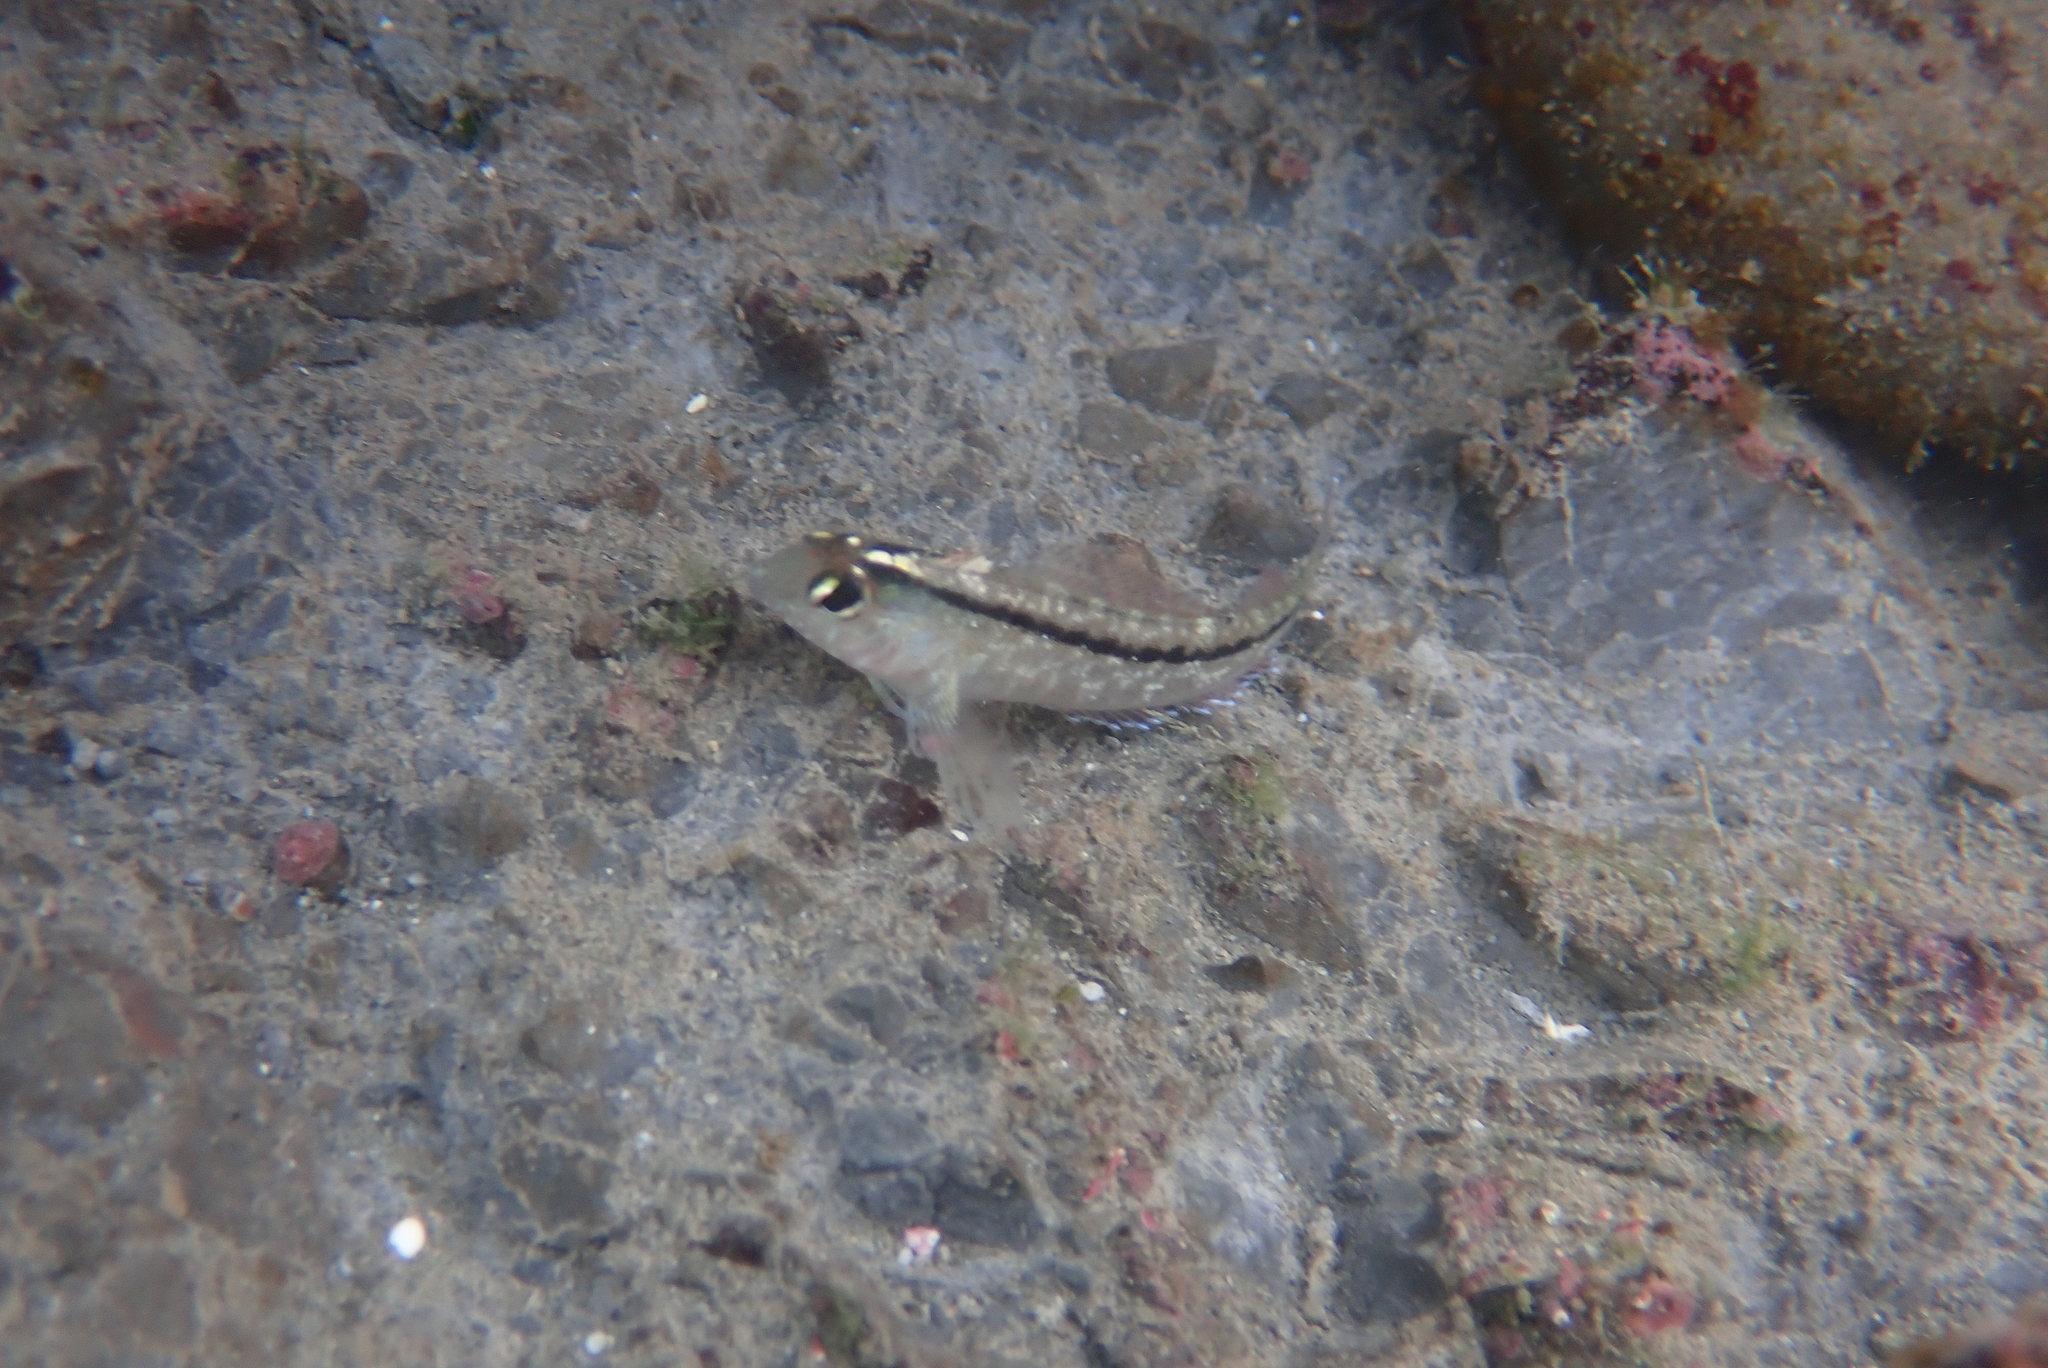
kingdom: Animalia
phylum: Chordata
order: Perciformes
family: Tripterygiidae
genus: Forsterygion
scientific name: Forsterygion lapillum
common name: Common triplefin
